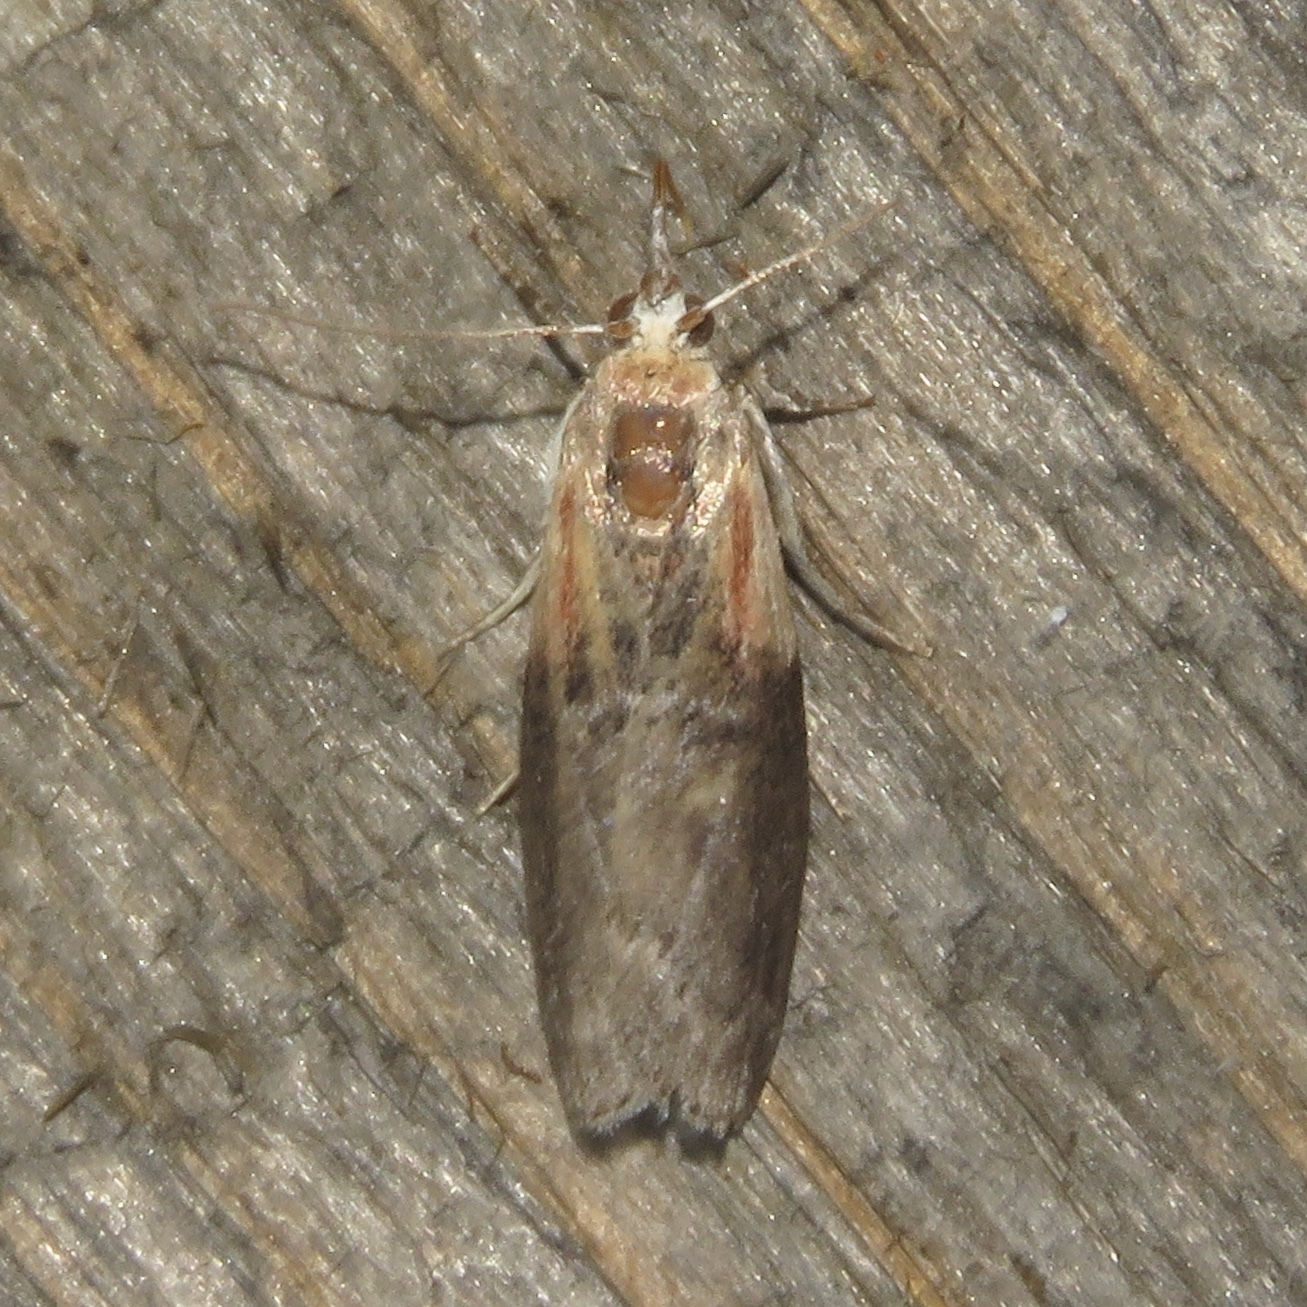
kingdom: Animalia
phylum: Arthropoda
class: Insecta
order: Lepidoptera
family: Pyralidae
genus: Sciota
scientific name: Sciota basilaris
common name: Yellow-shouldered leafroller
